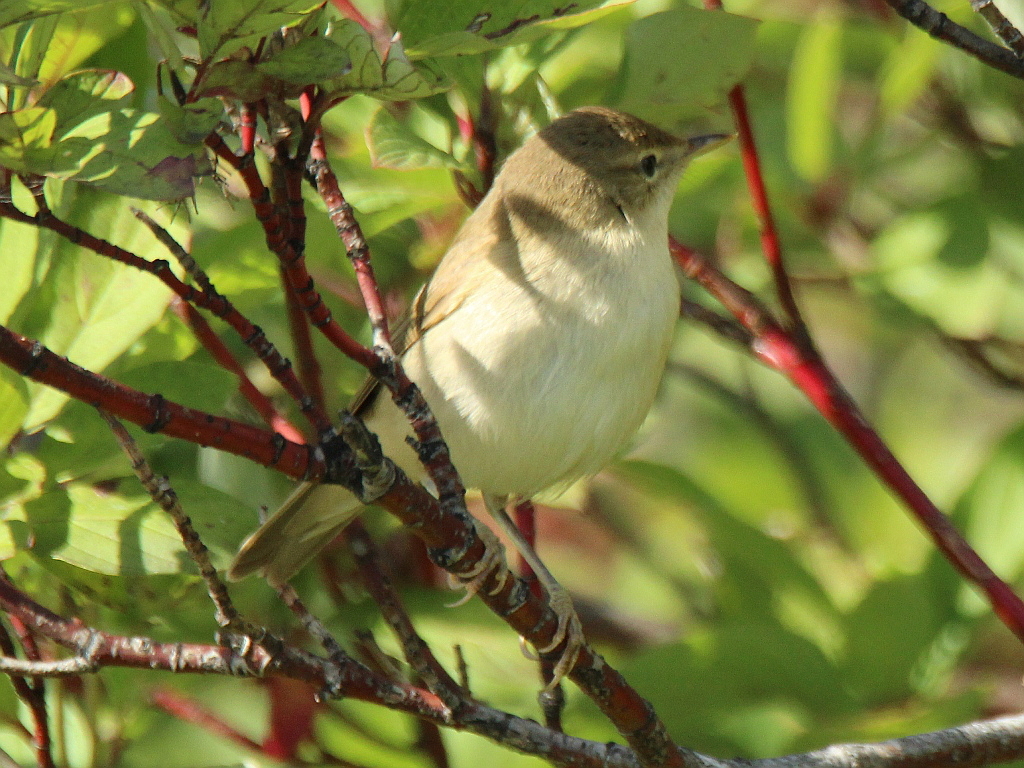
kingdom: Animalia
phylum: Chordata
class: Aves
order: Passeriformes
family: Acrocephalidae
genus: Acrocephalus
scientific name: Acrocephalus dumetorum
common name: Blyth's reed warbler
